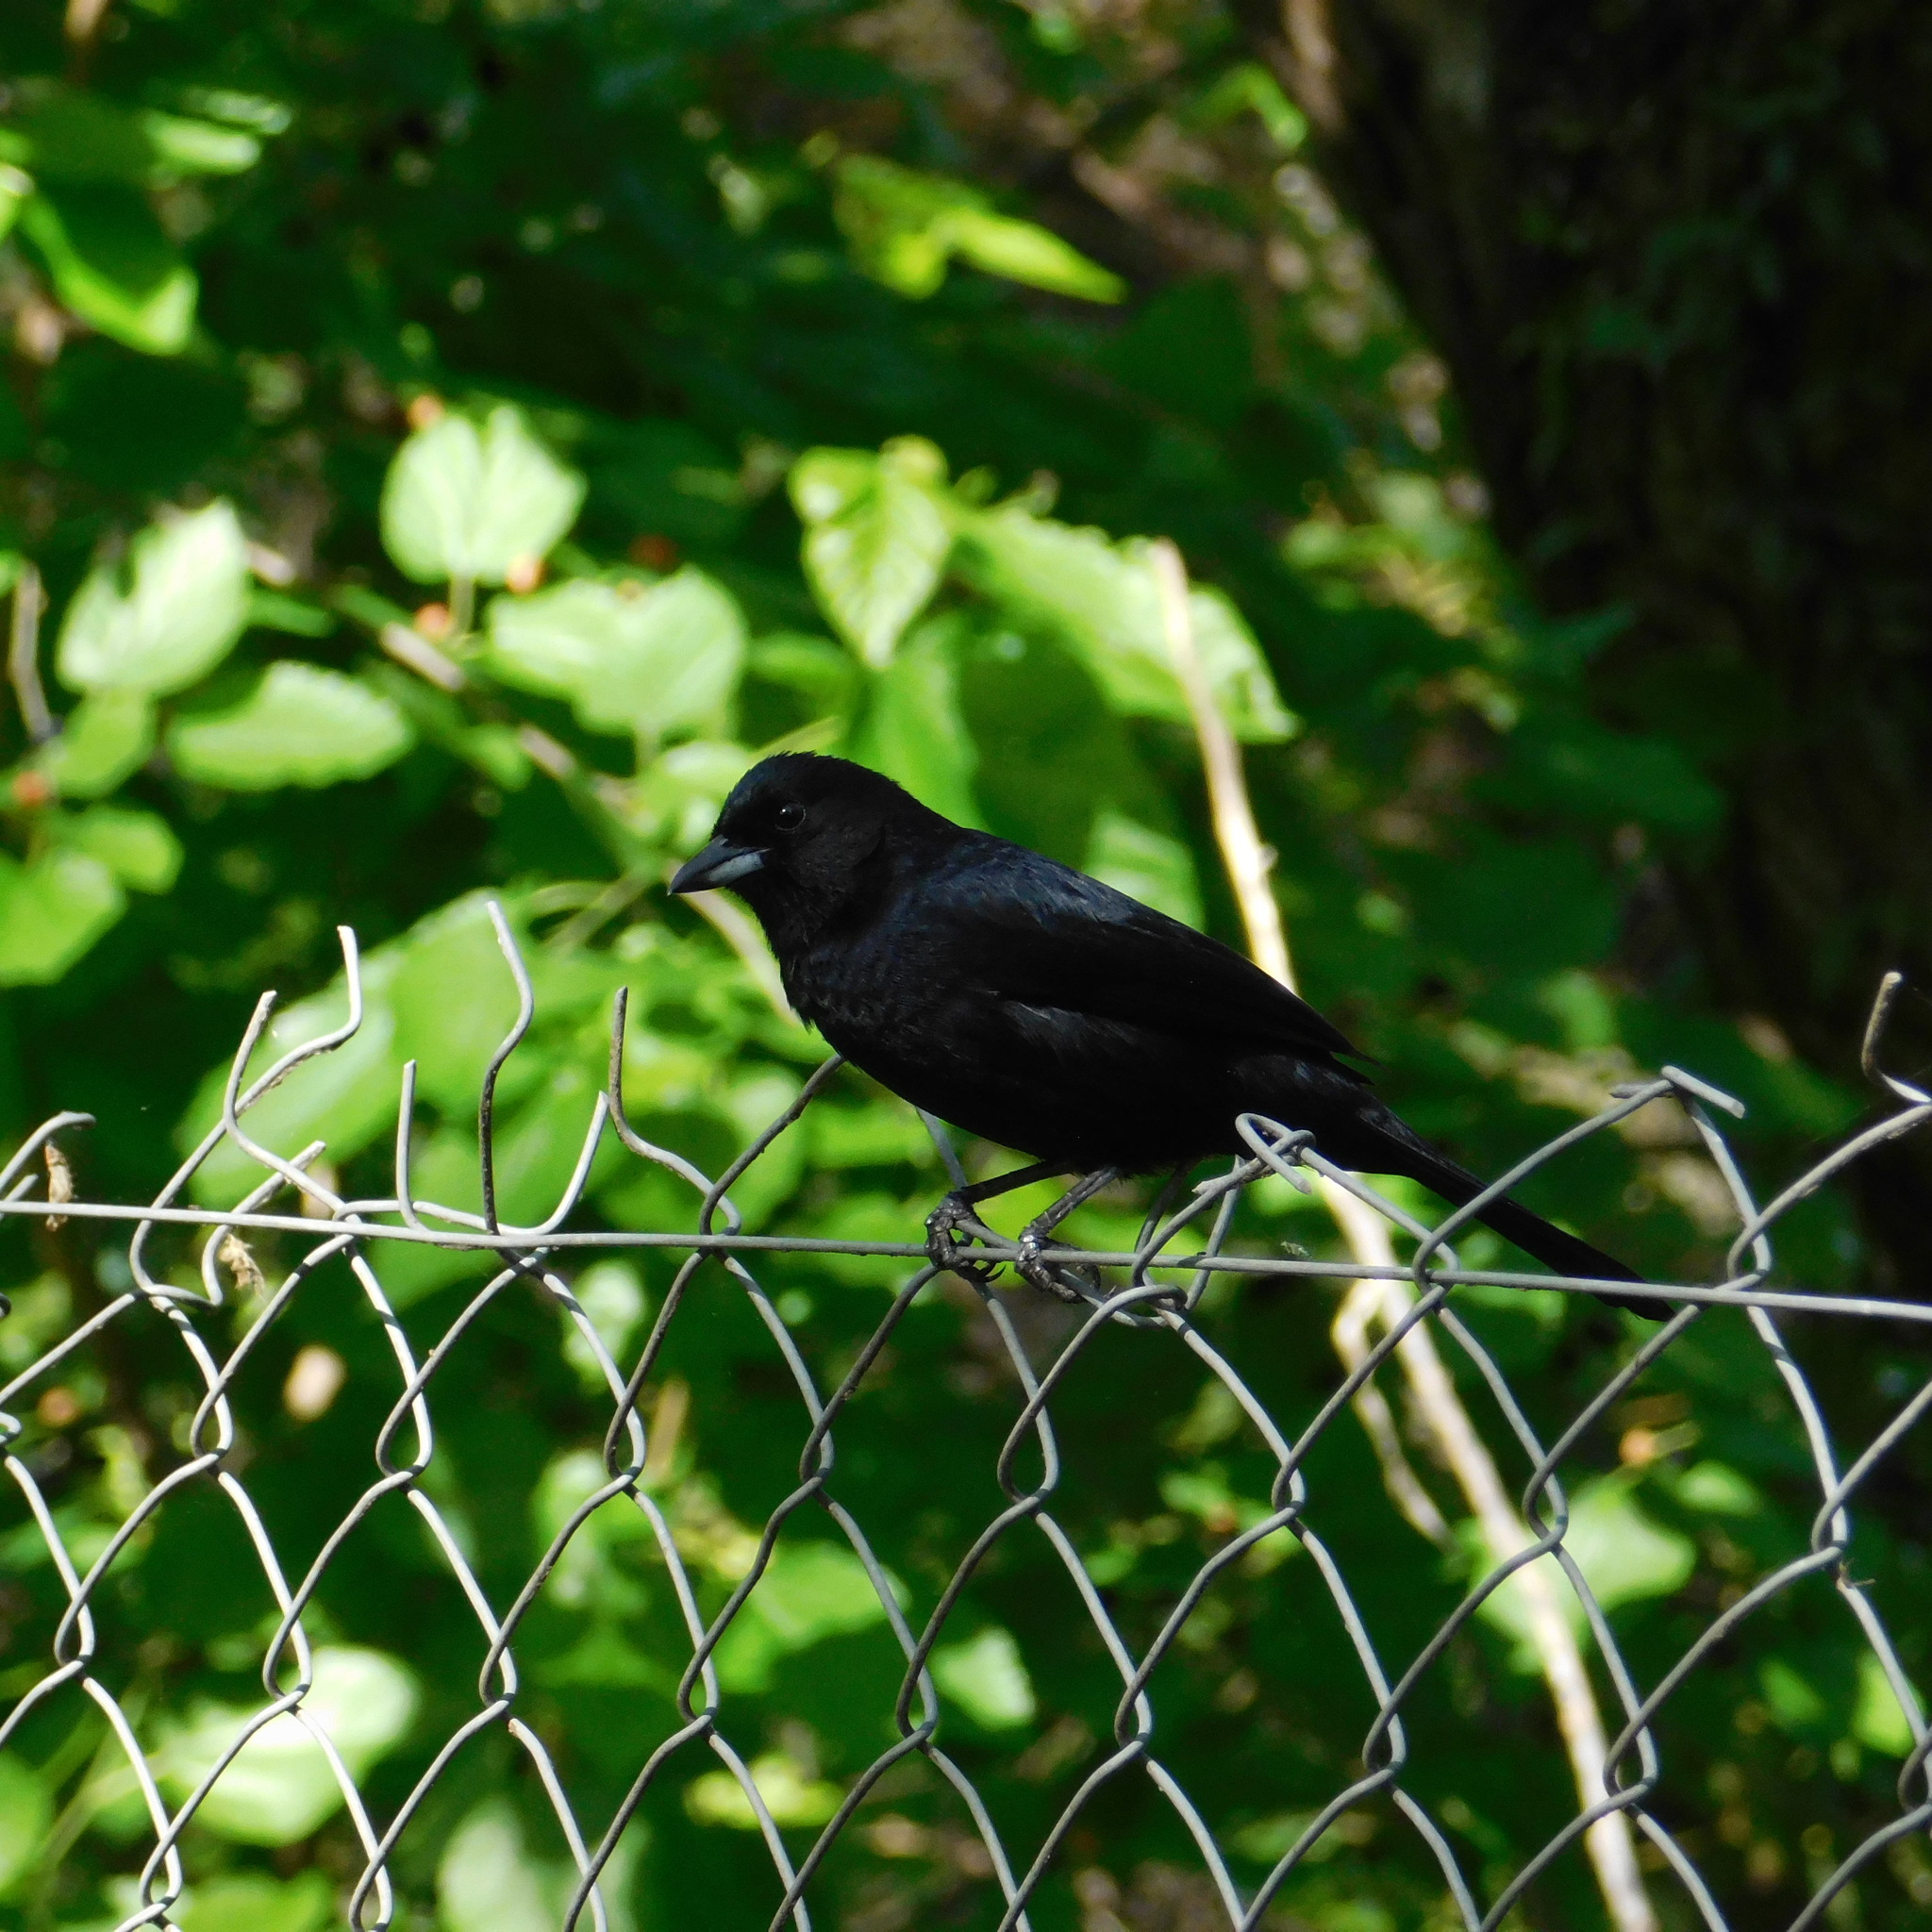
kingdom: Animalia
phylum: Chordata
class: Aves
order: Passeriformes
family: Thraupidae
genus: Tachyphonus
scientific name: Tachyphonus rufus
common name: White-lined tanager
